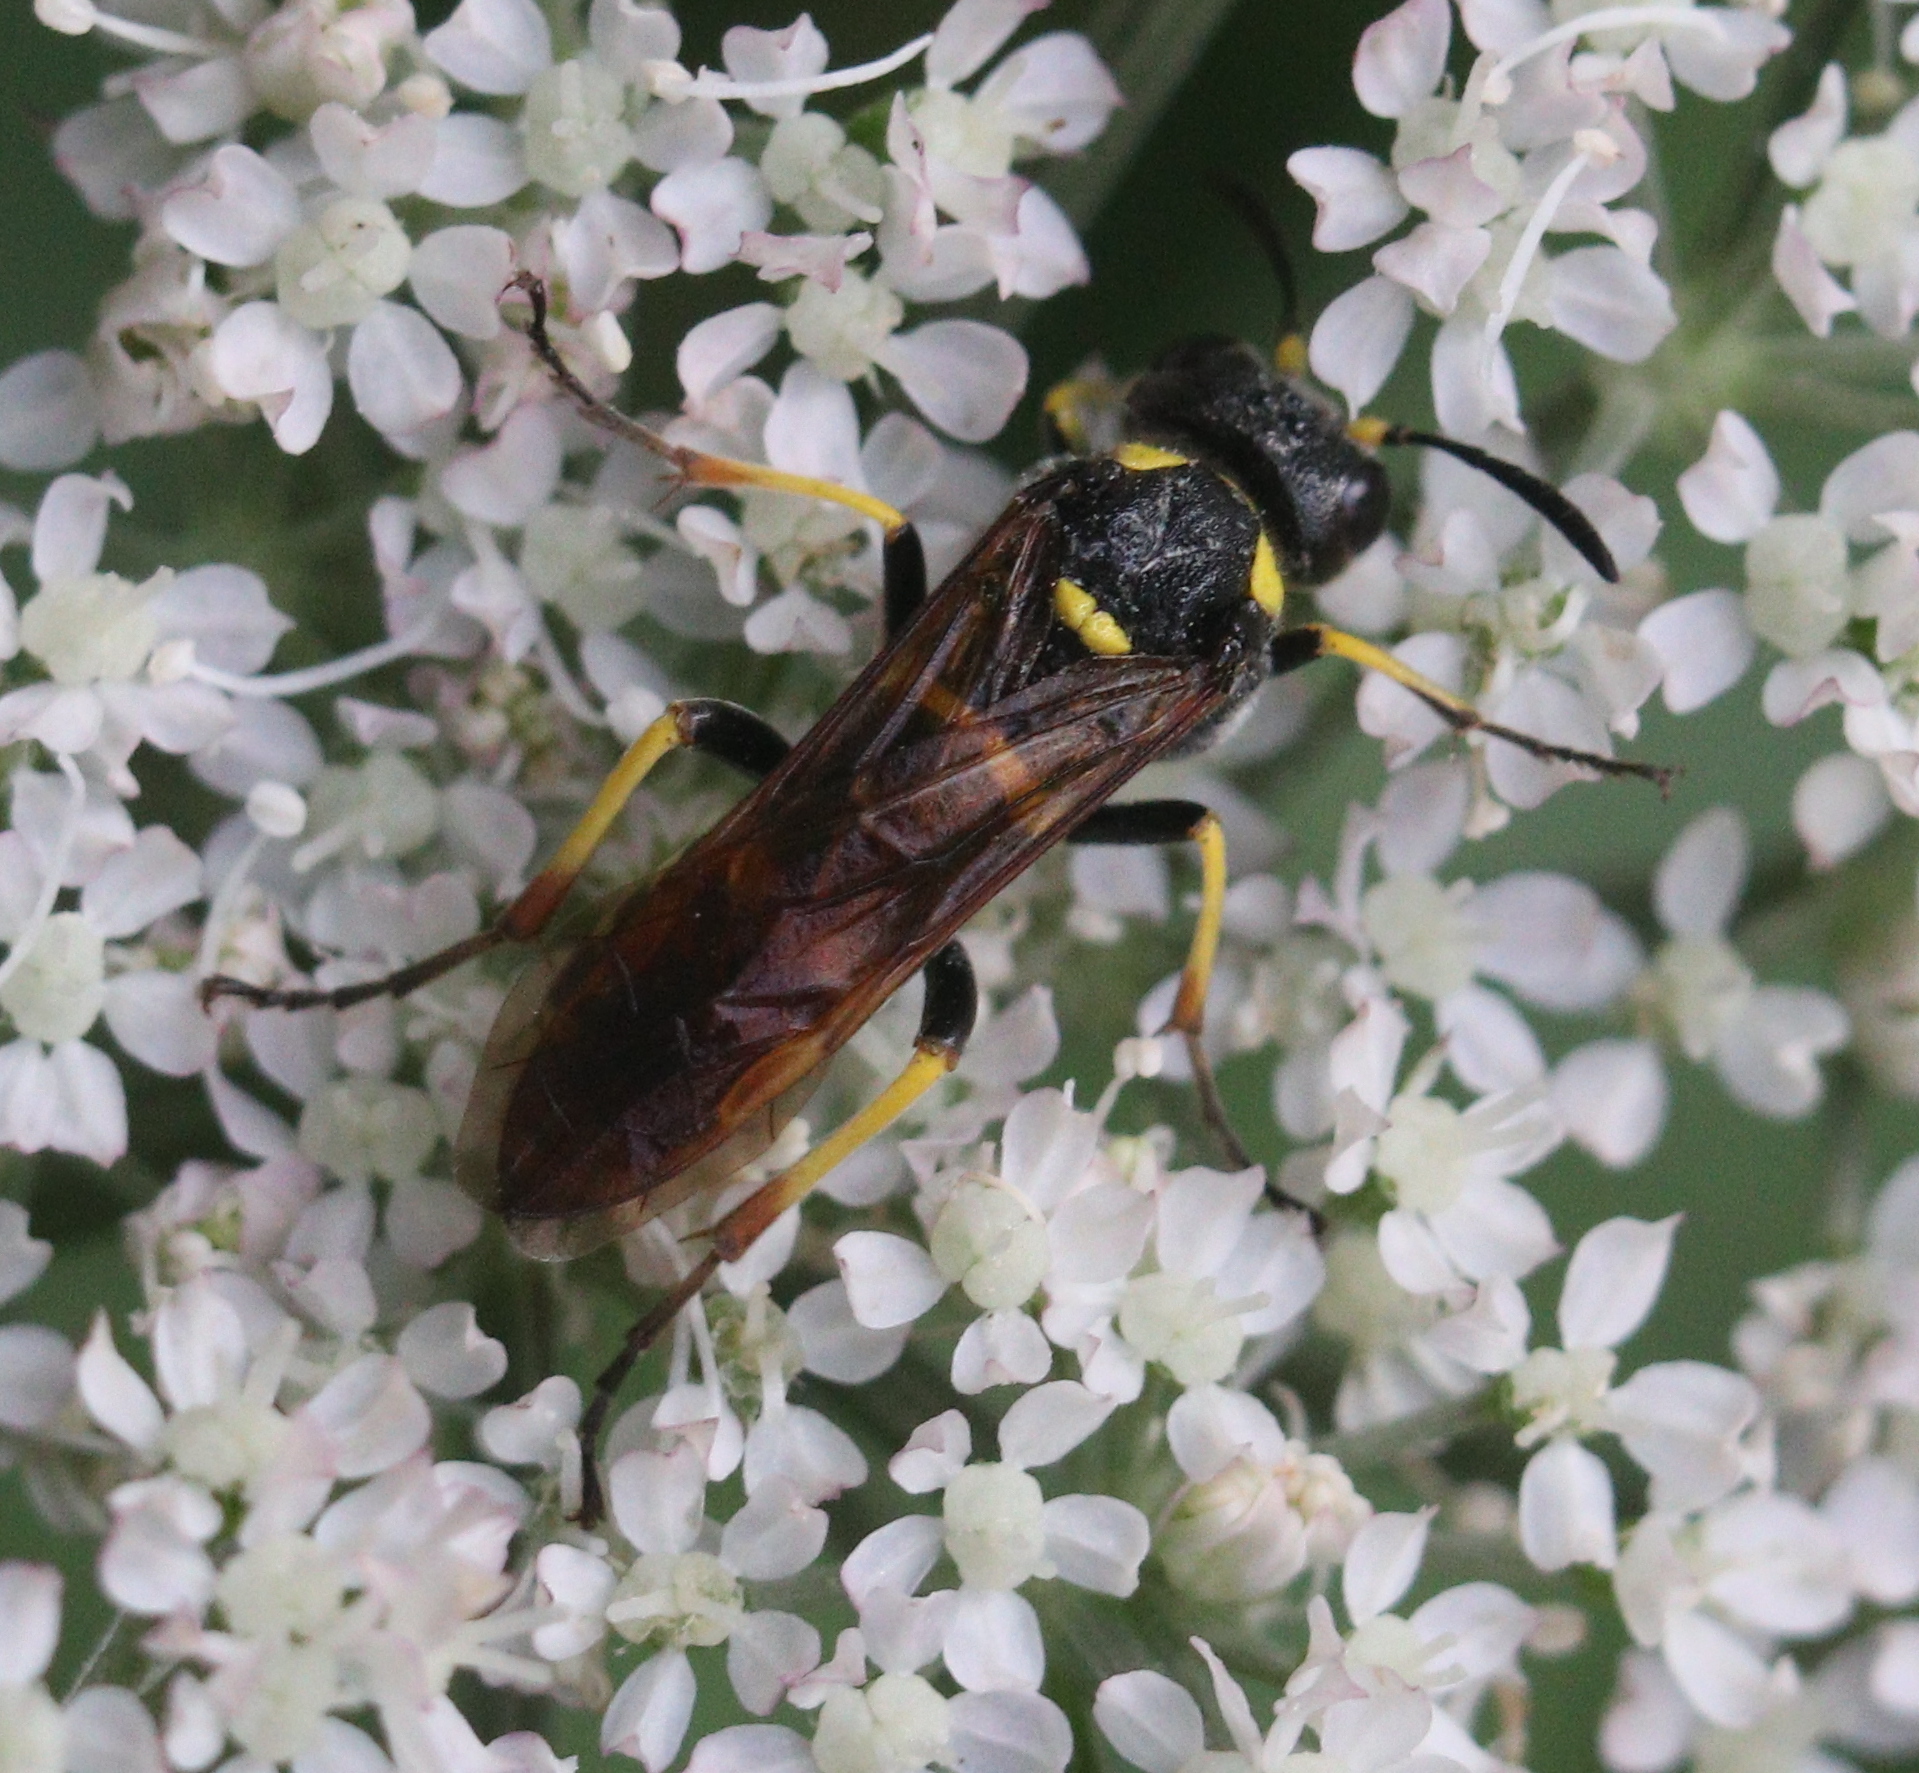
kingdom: Animalia
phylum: Arthropoda
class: Insecta
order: Hymenoptera
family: Tenthredinidae
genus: Tenthredo
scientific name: Tenthredo marginella
